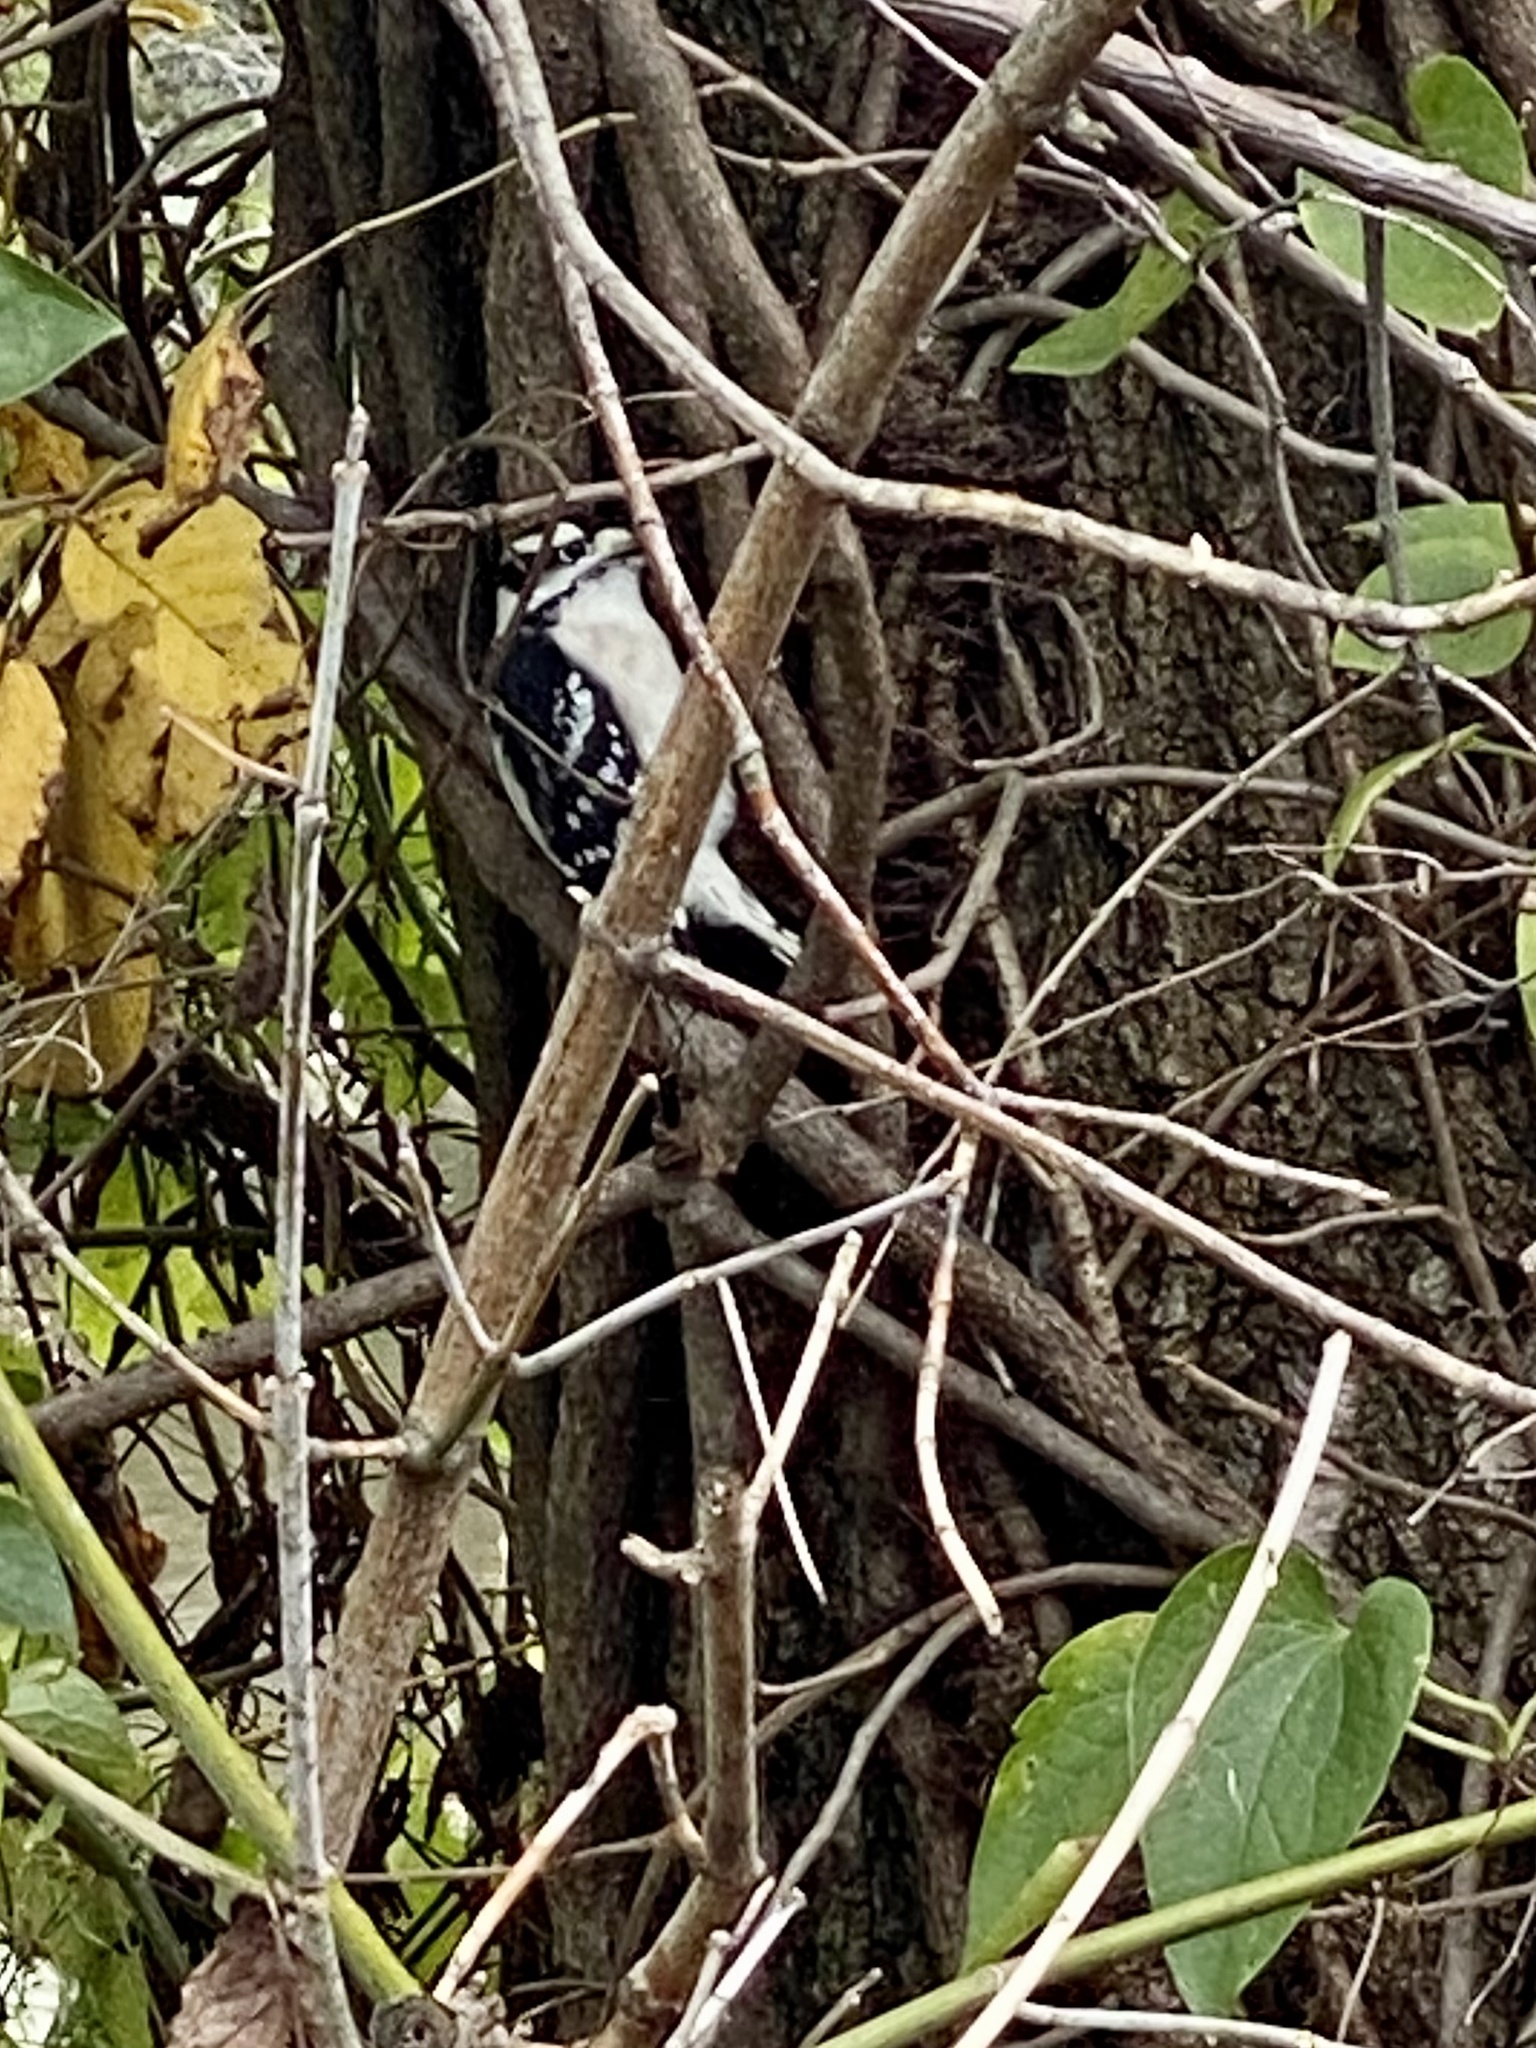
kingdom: Animalia
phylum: Chordata
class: Aves
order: Piciformes
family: Picidae
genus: Dryobates
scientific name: Dryobates pubescens
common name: Downy woodpecker
